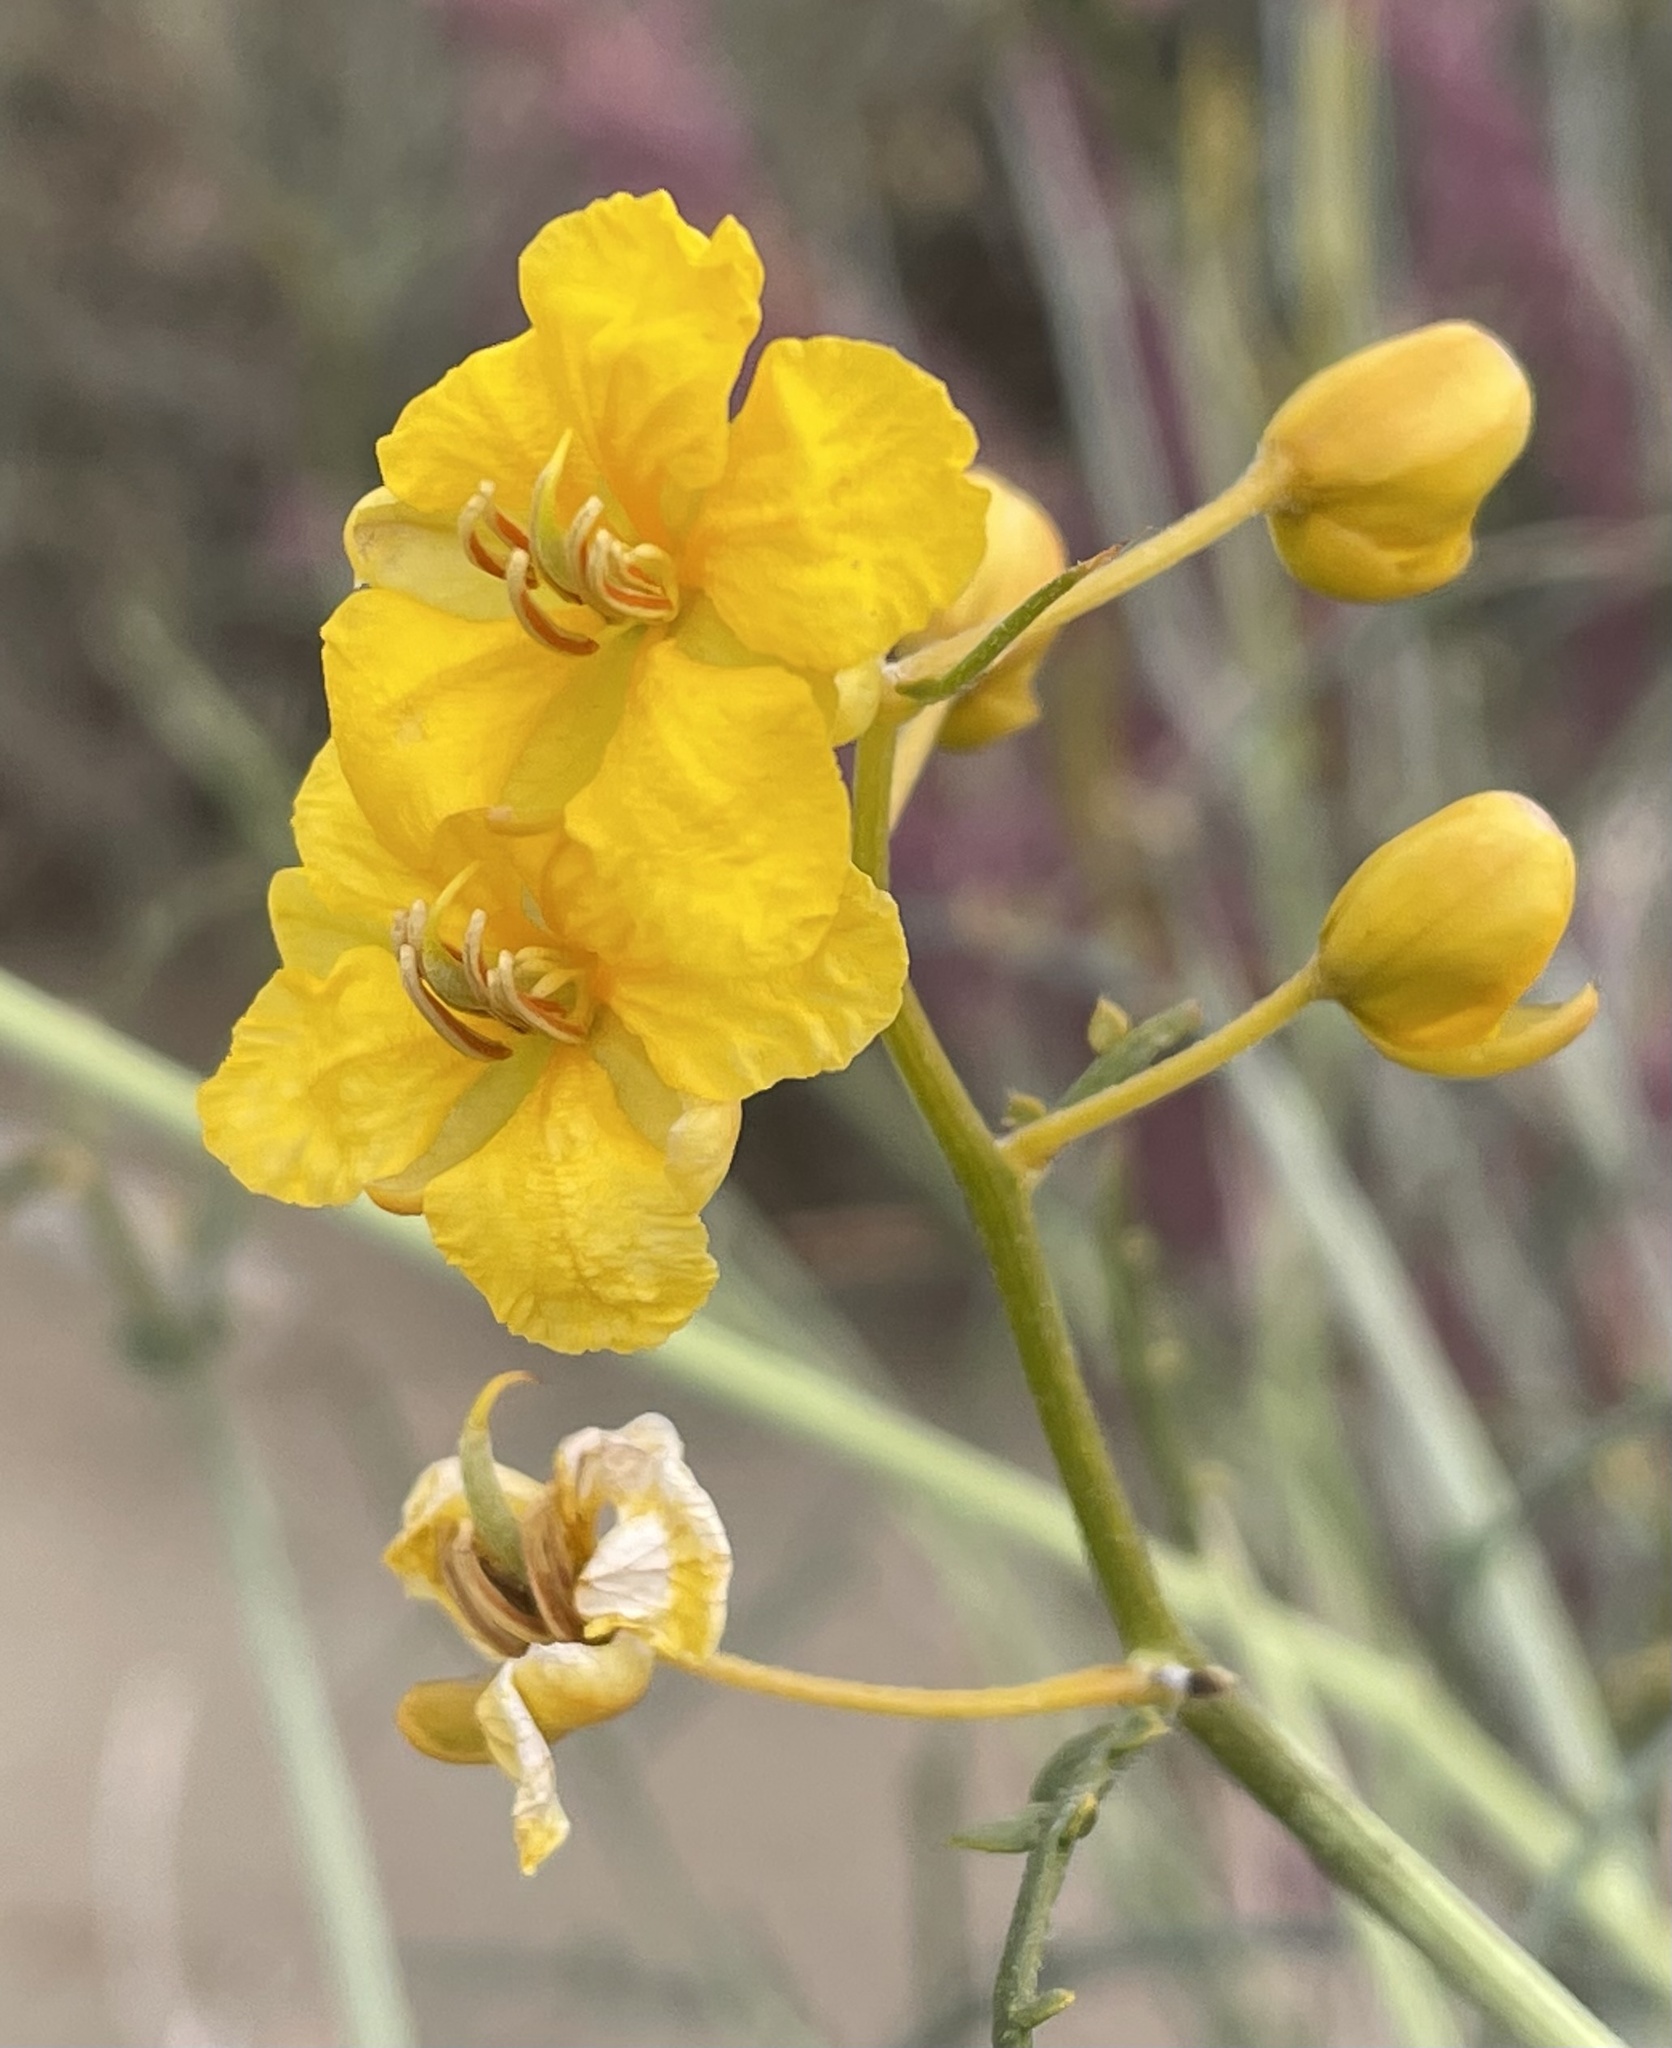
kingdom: Plantae
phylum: Tracheophyta
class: Magnoliopsida
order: Fabales
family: Fabaceae
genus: Senna
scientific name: Senna armata
